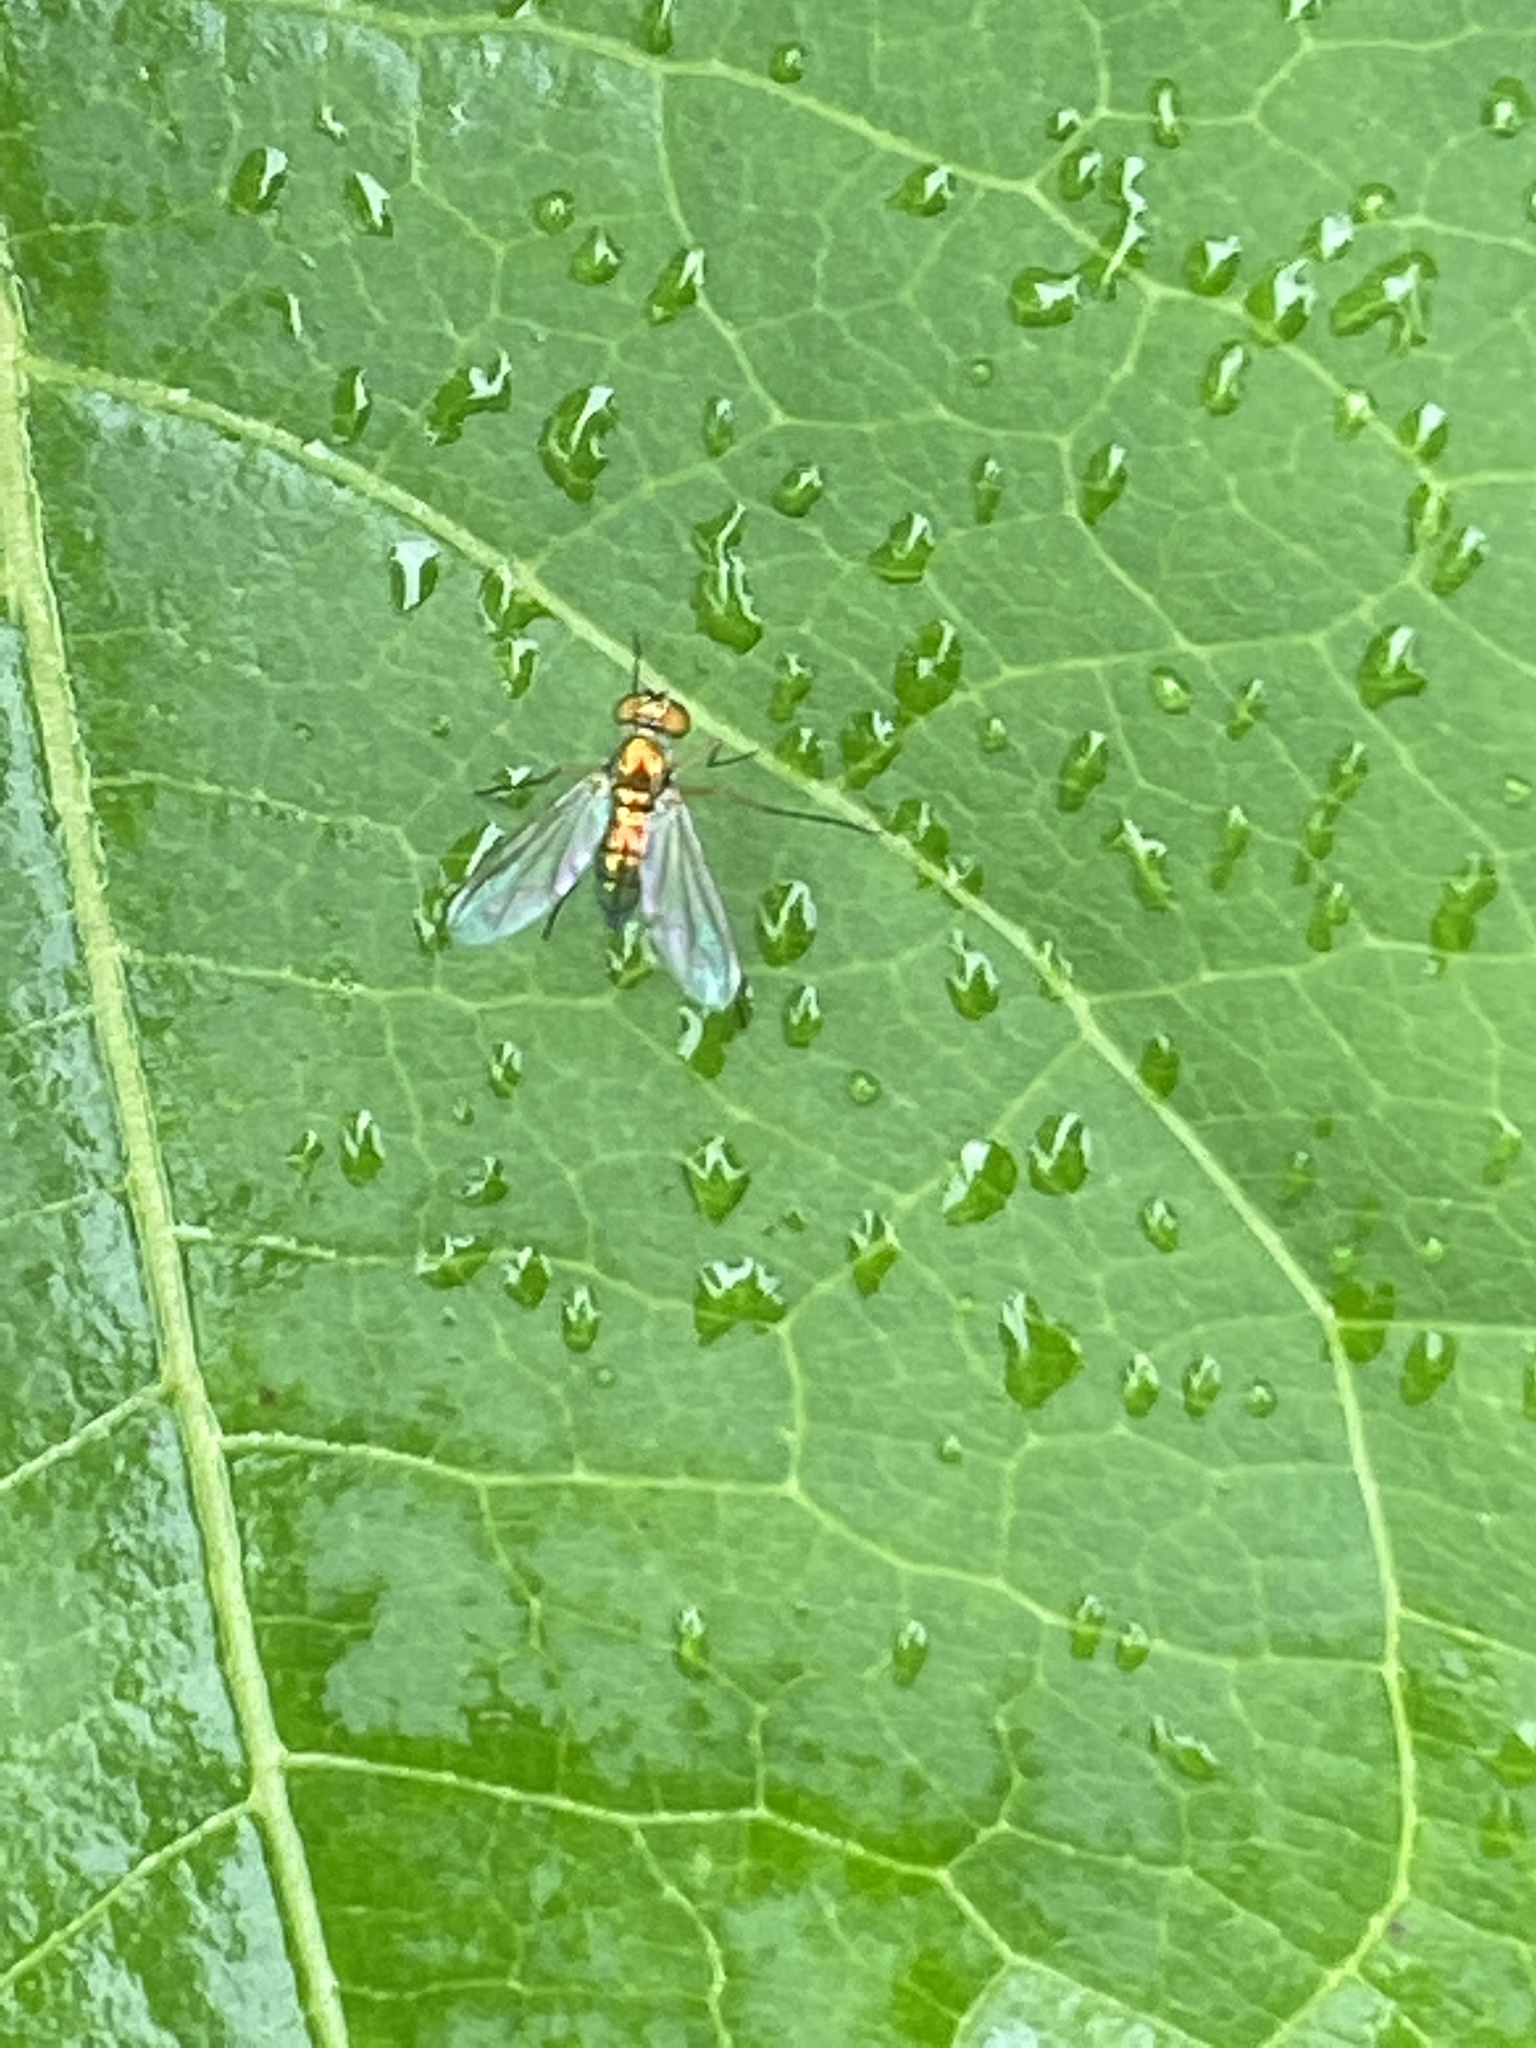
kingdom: Animalia
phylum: Arthropoda
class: Insecta
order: Diptera
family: Dolichopodidae
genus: Amblypsilopus
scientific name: Amblypsilopus scintillans
